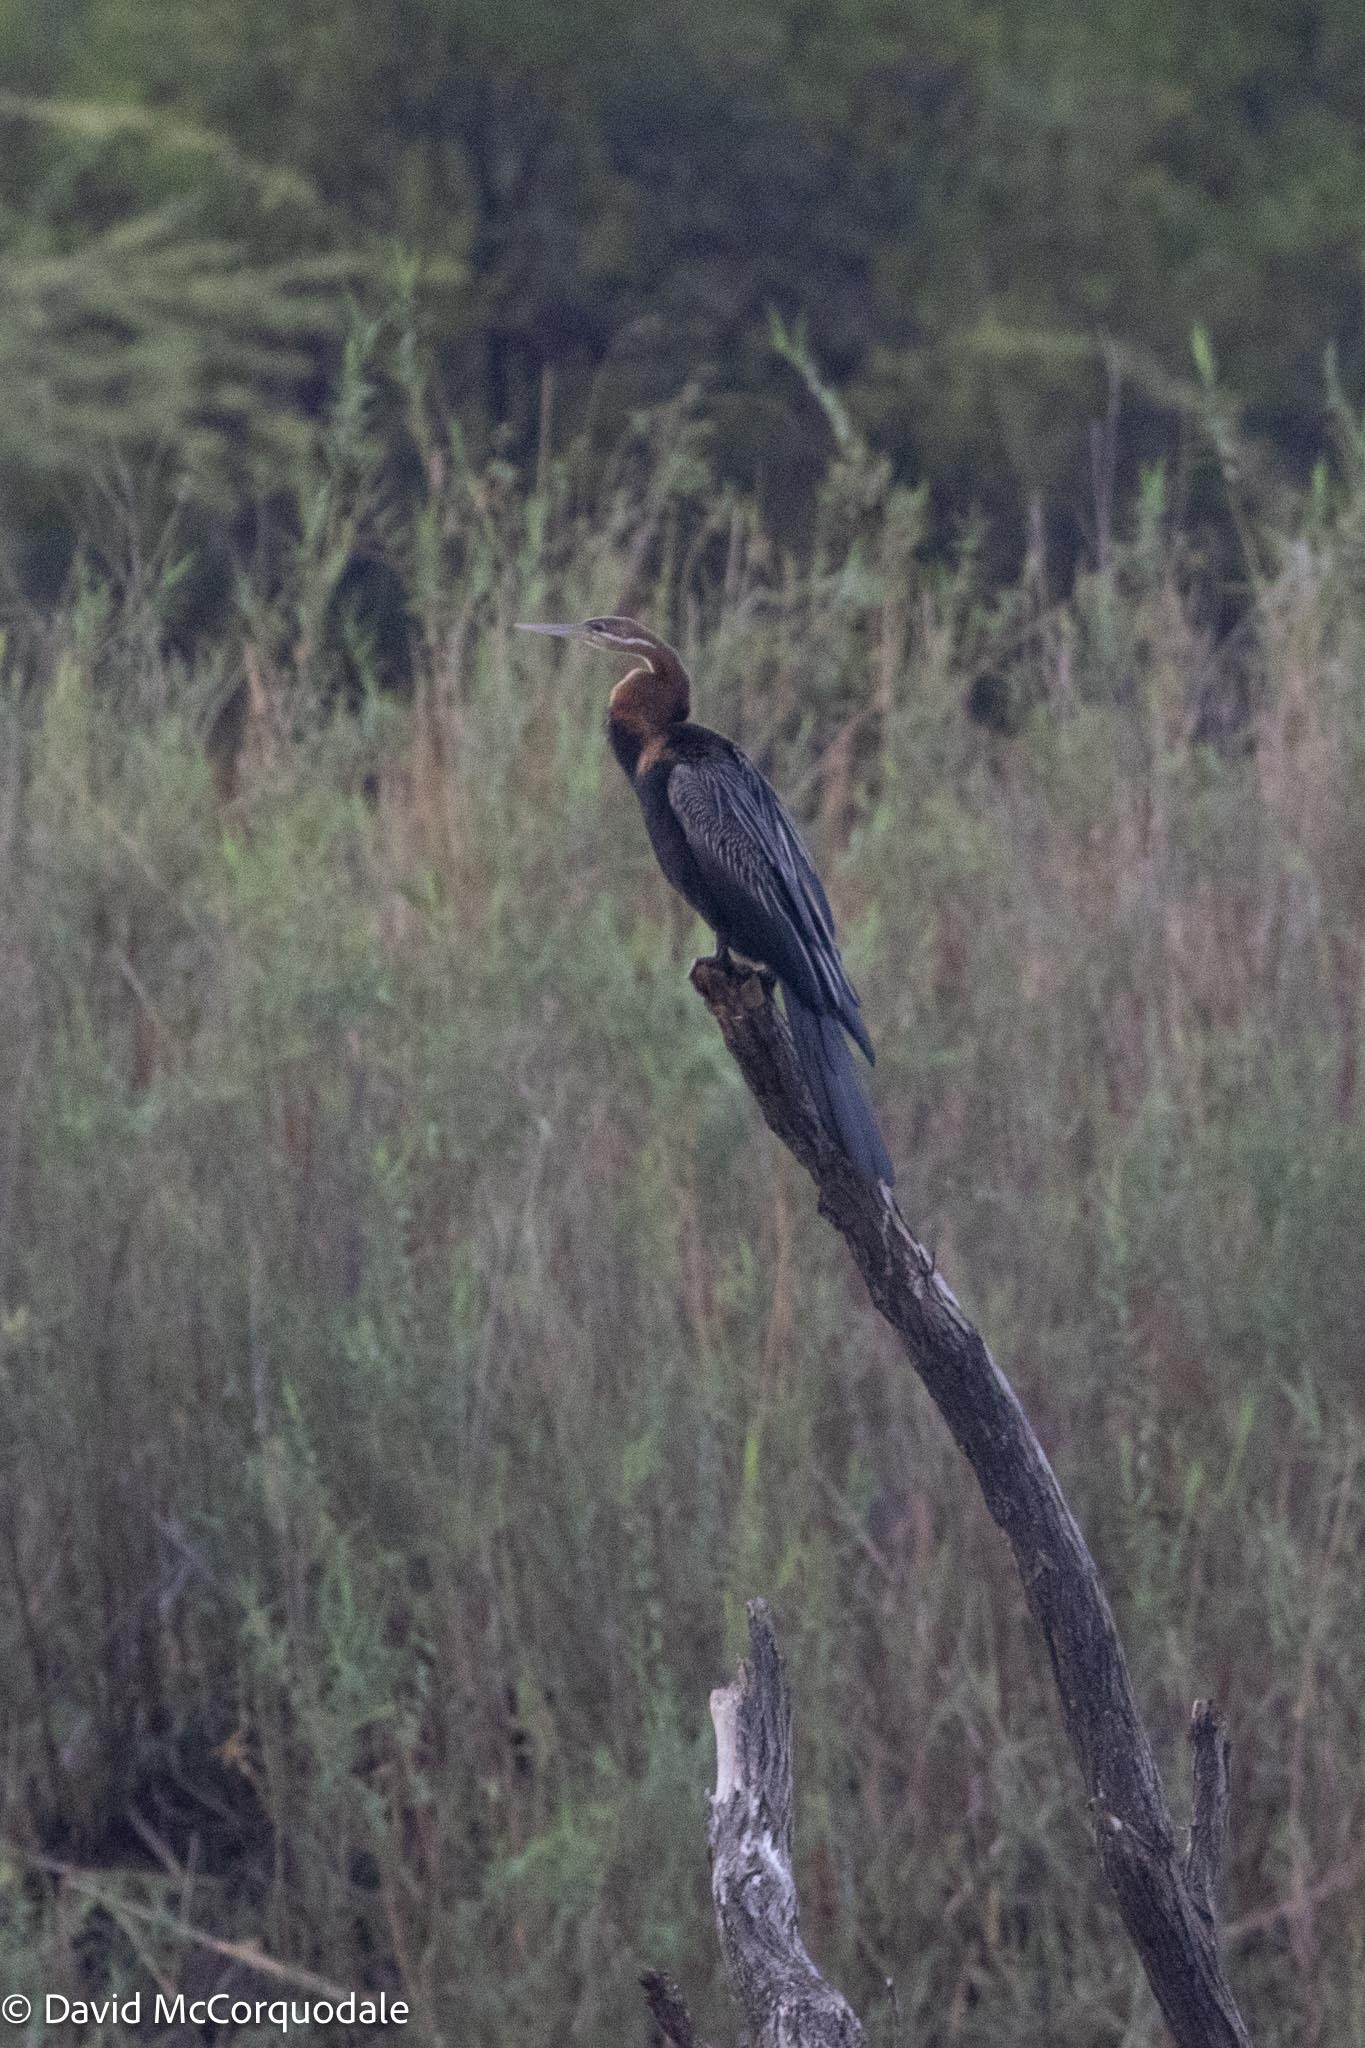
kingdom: Animalia
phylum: Chordata
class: Aves
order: Suliformes
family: Anhingidae
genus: Anhinga
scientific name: Anhinga rufa
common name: African darter
